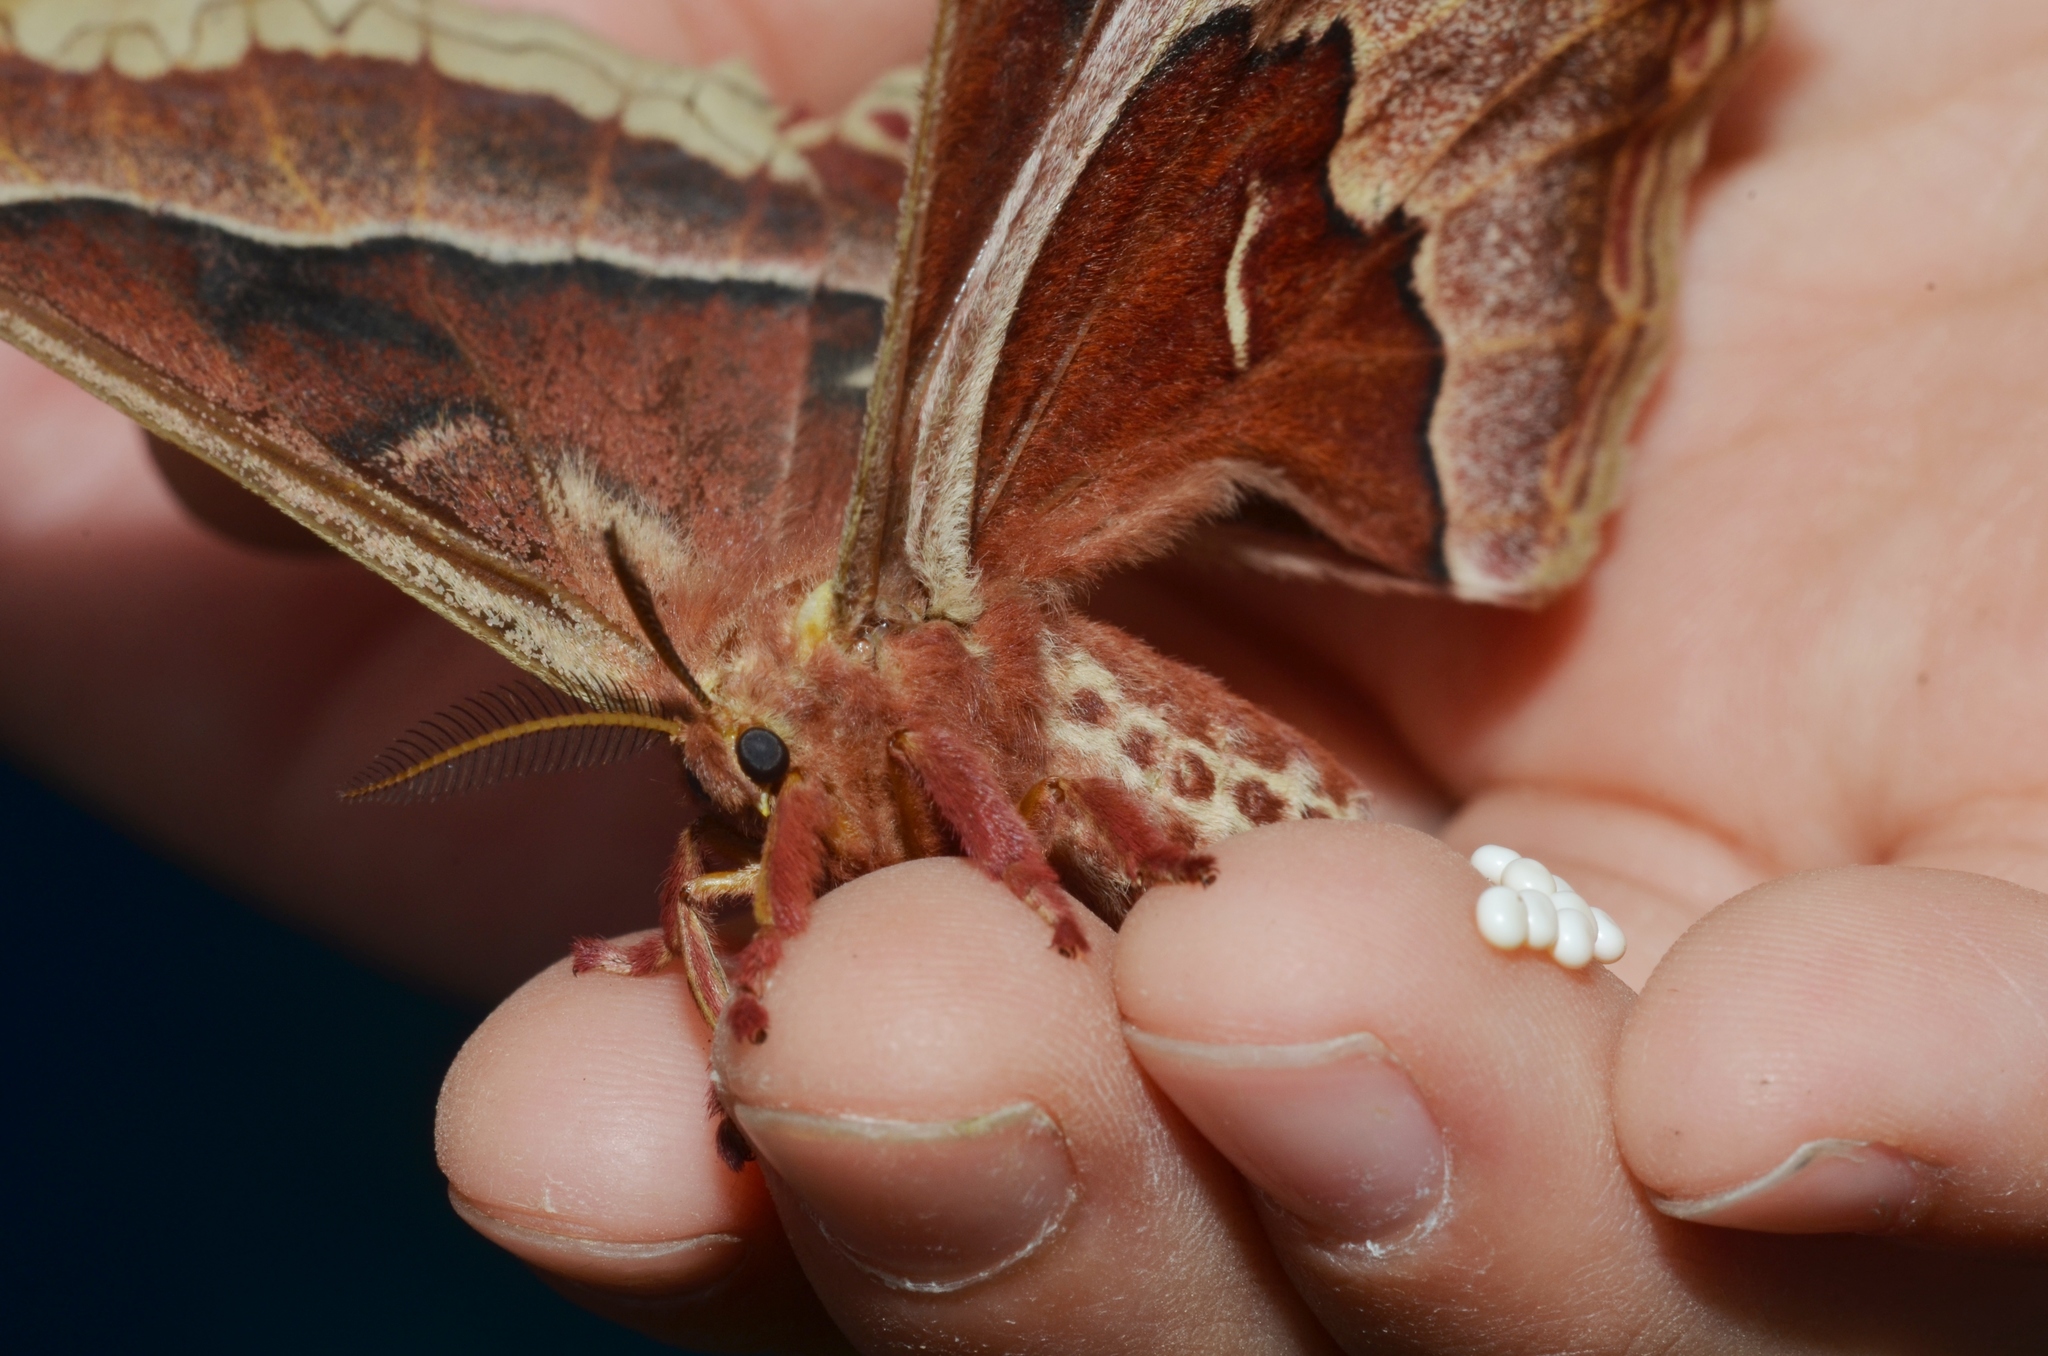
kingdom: Animalia
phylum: Arthropoda
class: Insecta
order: Lepidoptera
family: Saturniidae
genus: Callosamia
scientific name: Callosamia promethea
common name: Promethea silkmoth
